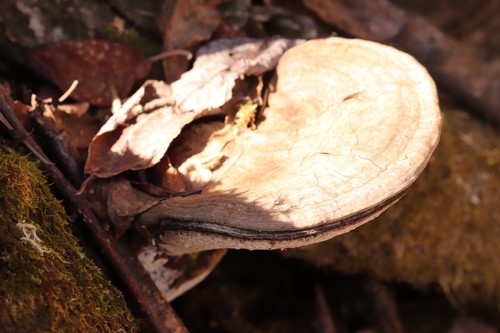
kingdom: Fungi
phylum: Basidiomycota
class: Agaricomycetes
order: Polyporales
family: Polyporaceae
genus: Ganoderma
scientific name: Ganoderma applanatum
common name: Artist's bracket
